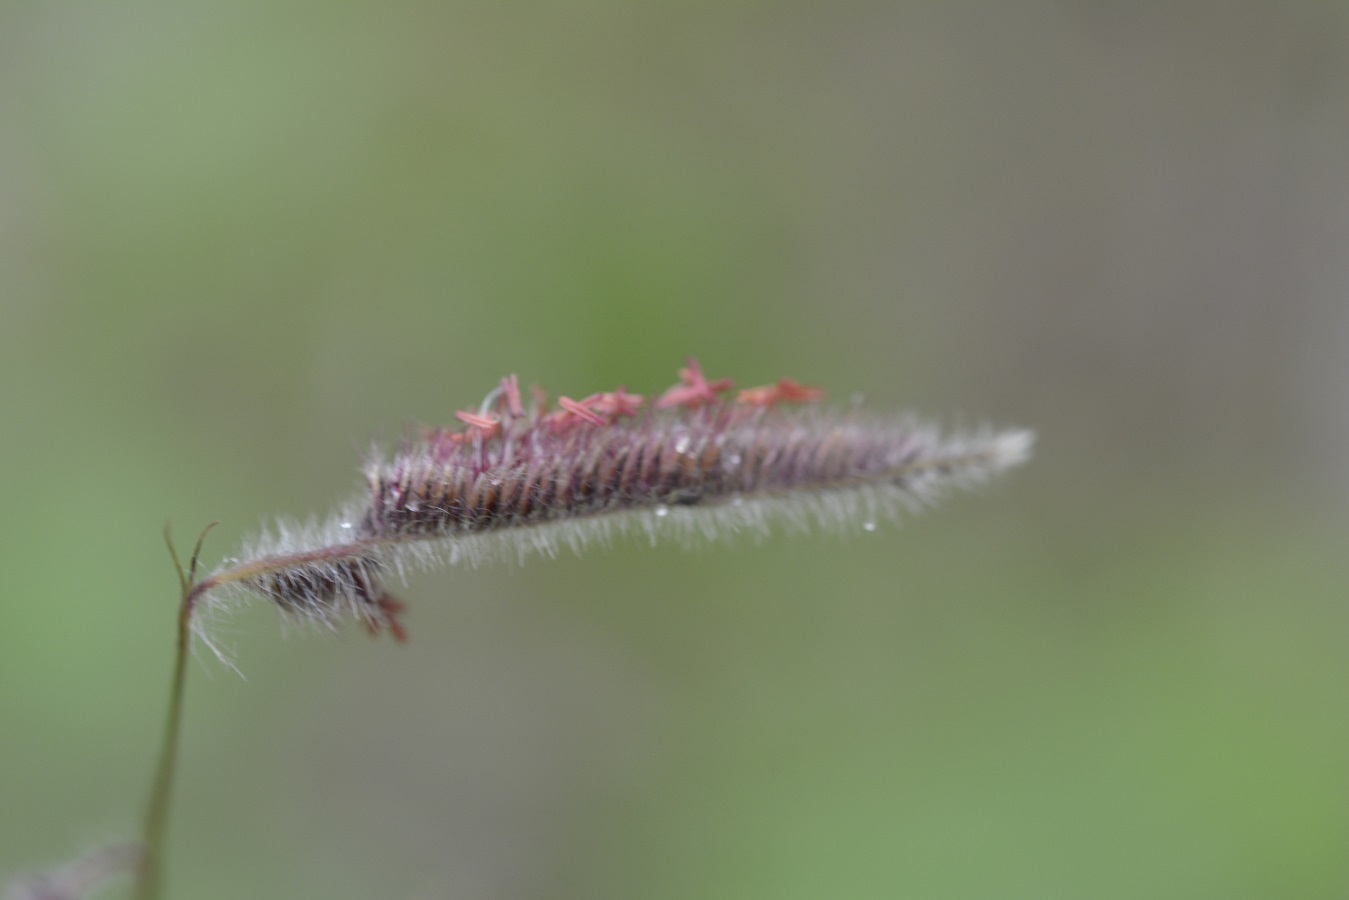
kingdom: Plantae
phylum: Tracheophyta
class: Liliopsida
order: Poales
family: Poaceae
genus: Bouteloua
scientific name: Bouteloua elata
